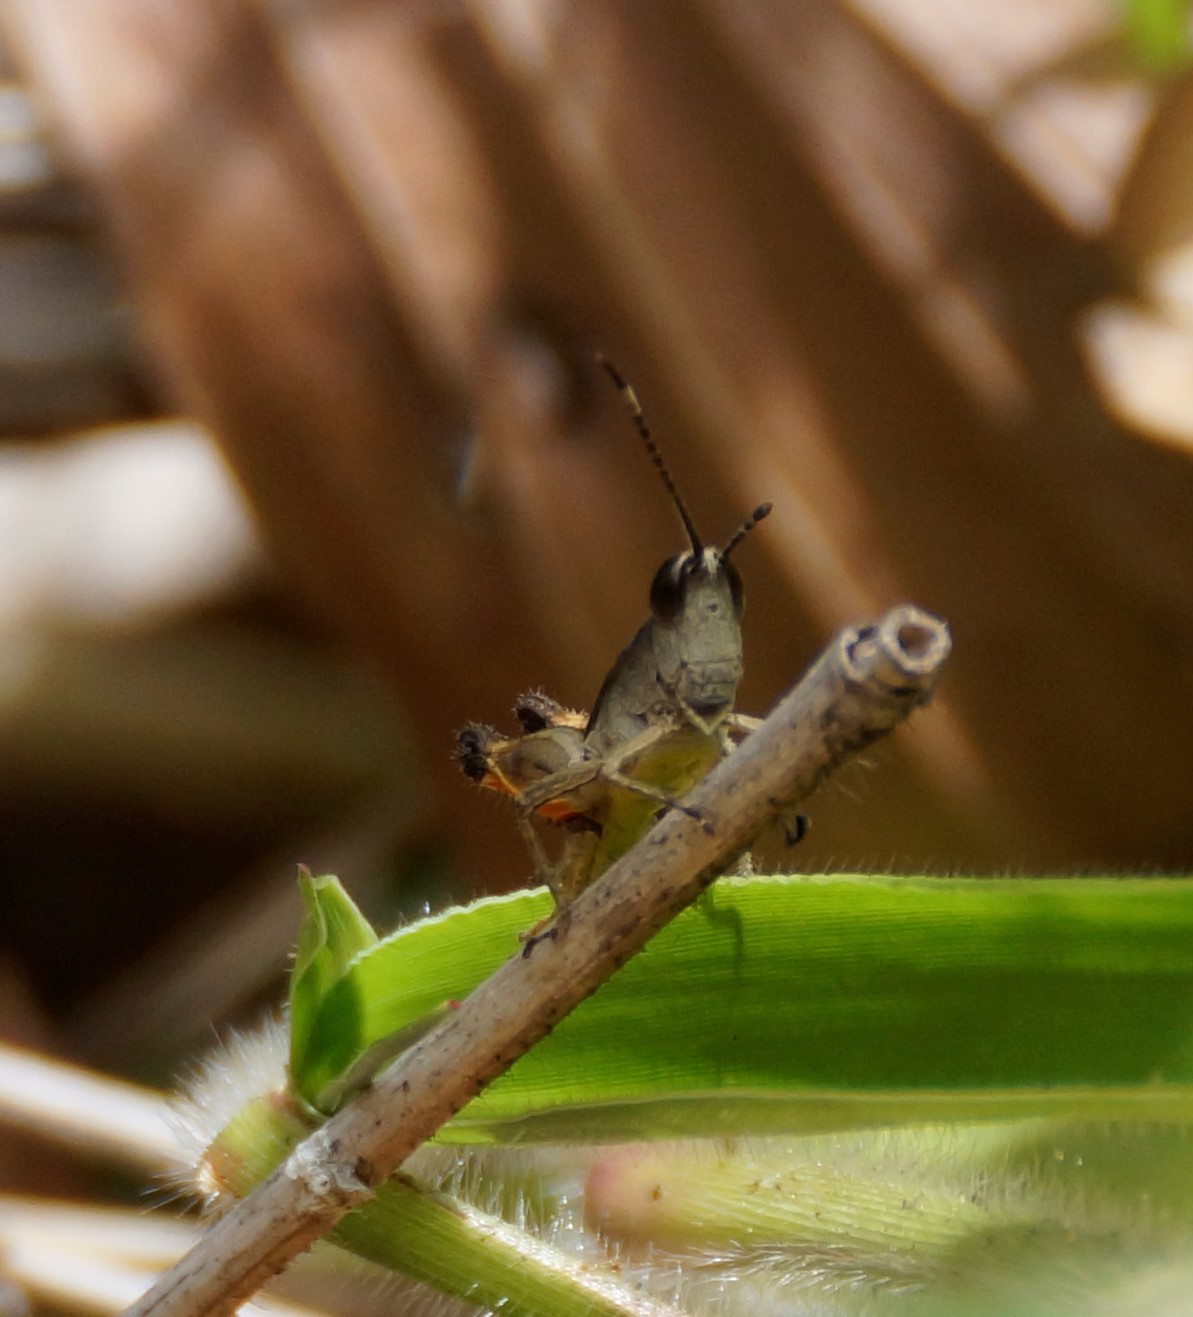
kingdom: Animalia
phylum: Arthropoda
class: Insecta
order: Orthoptera
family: Acrididae
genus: Rectitropis
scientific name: Rectitropis
